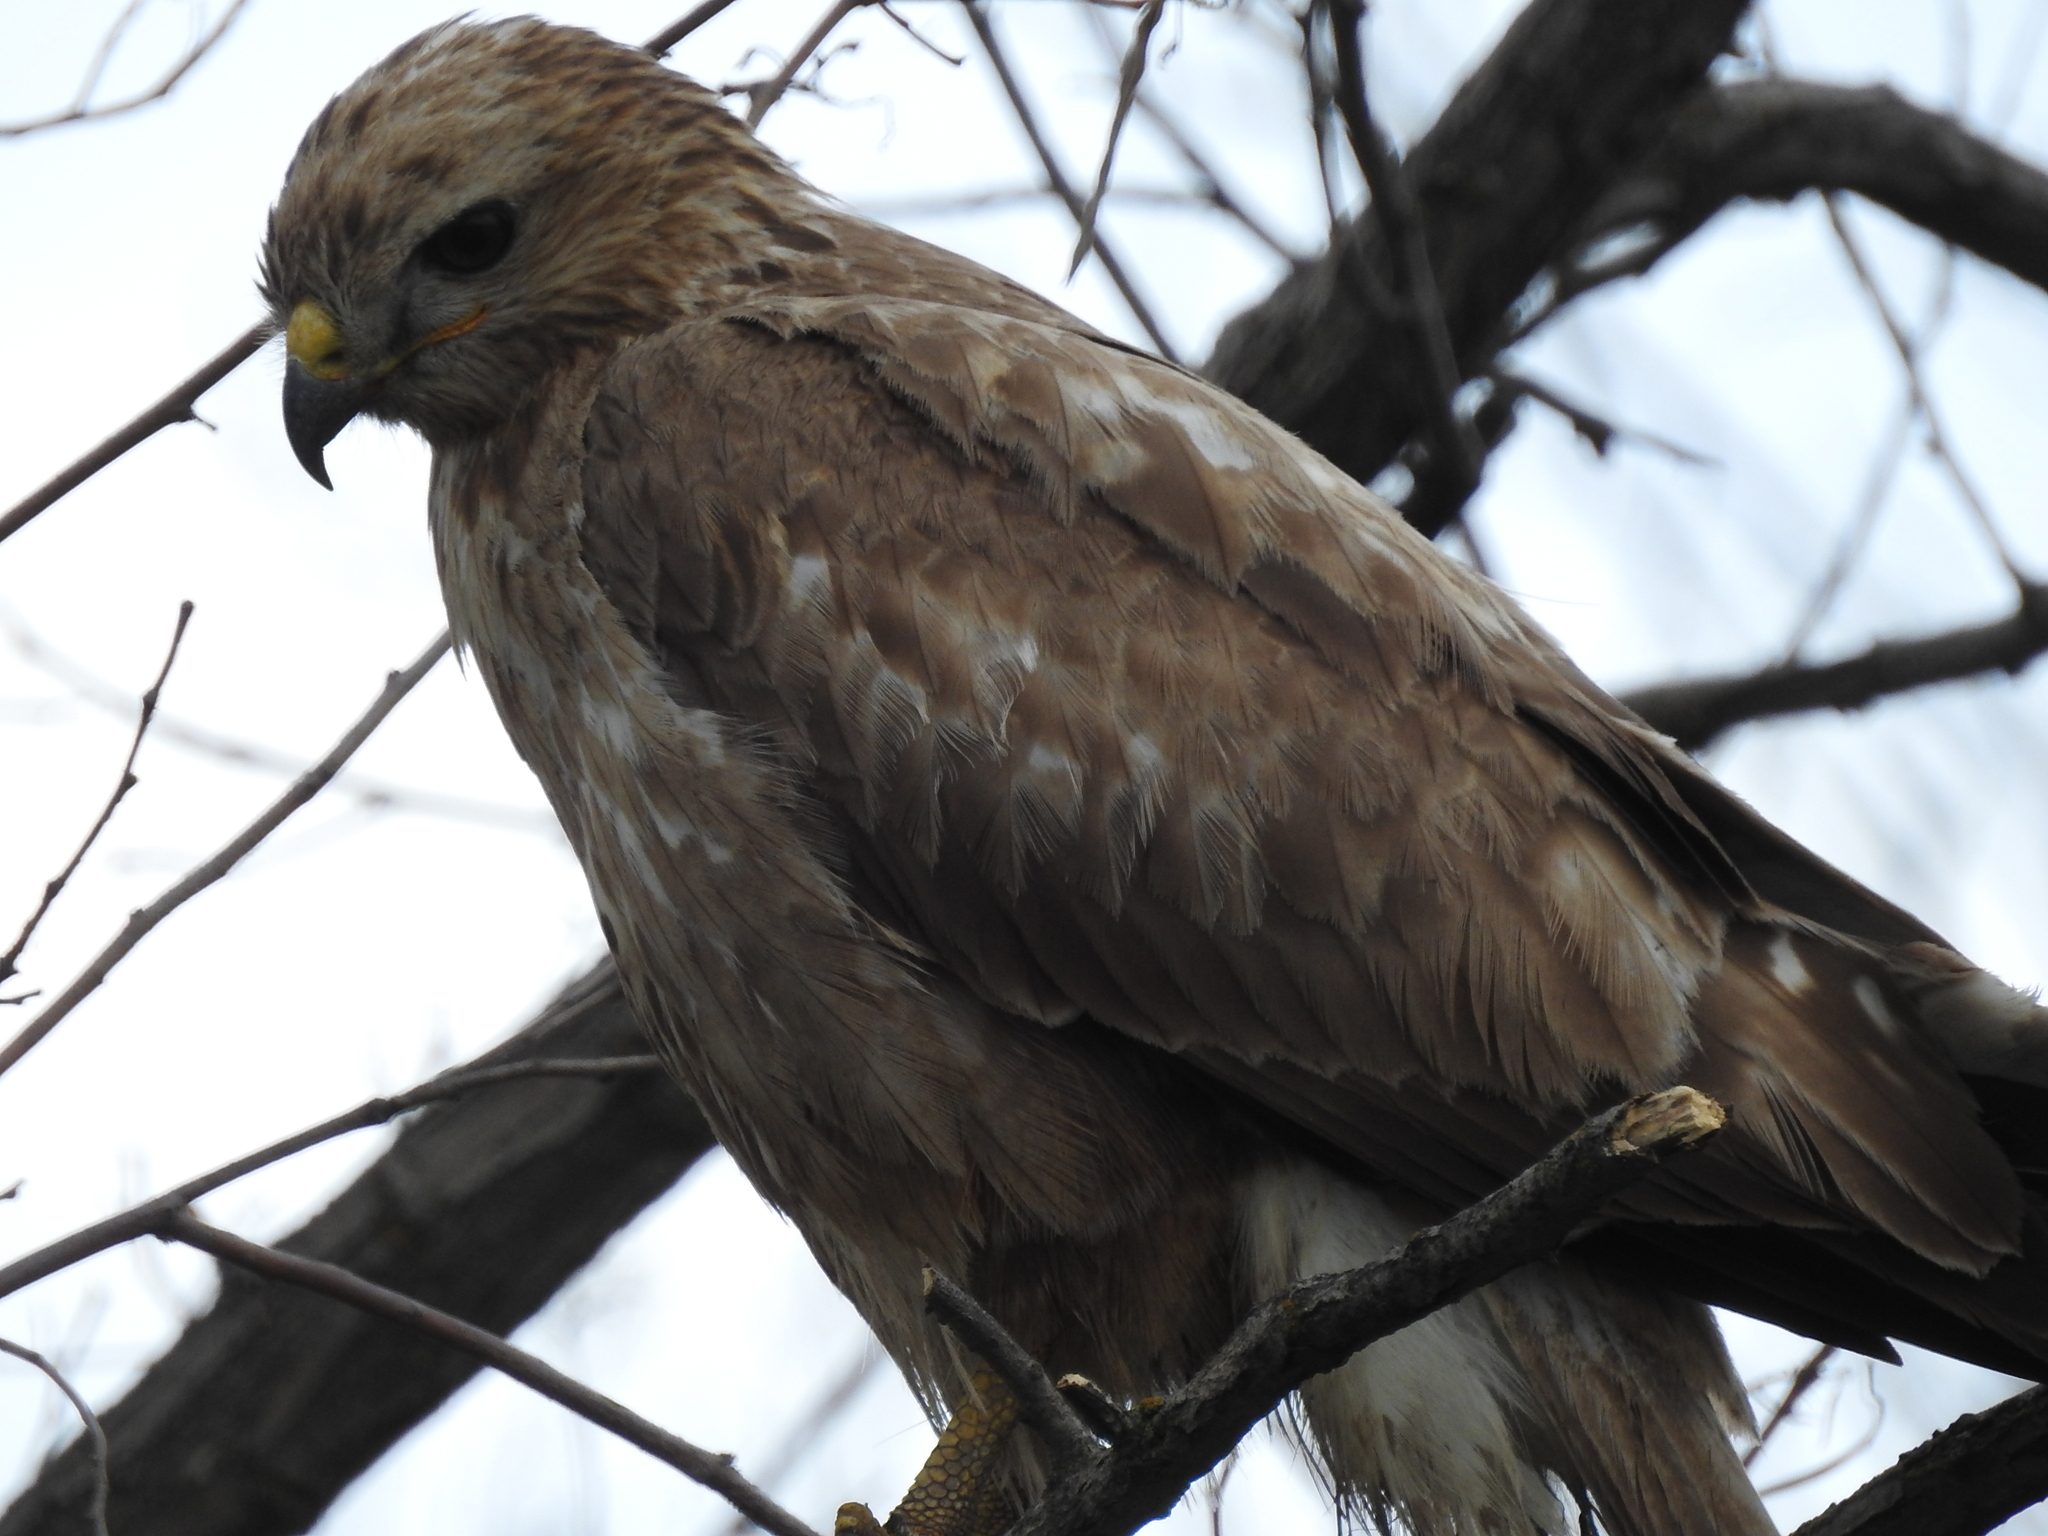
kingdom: Animalia
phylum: Chordata
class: Aves
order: Accipitriformes
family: Accipitridae
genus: Buteo
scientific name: Buteo rufinus
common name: Long-legged buzzard
